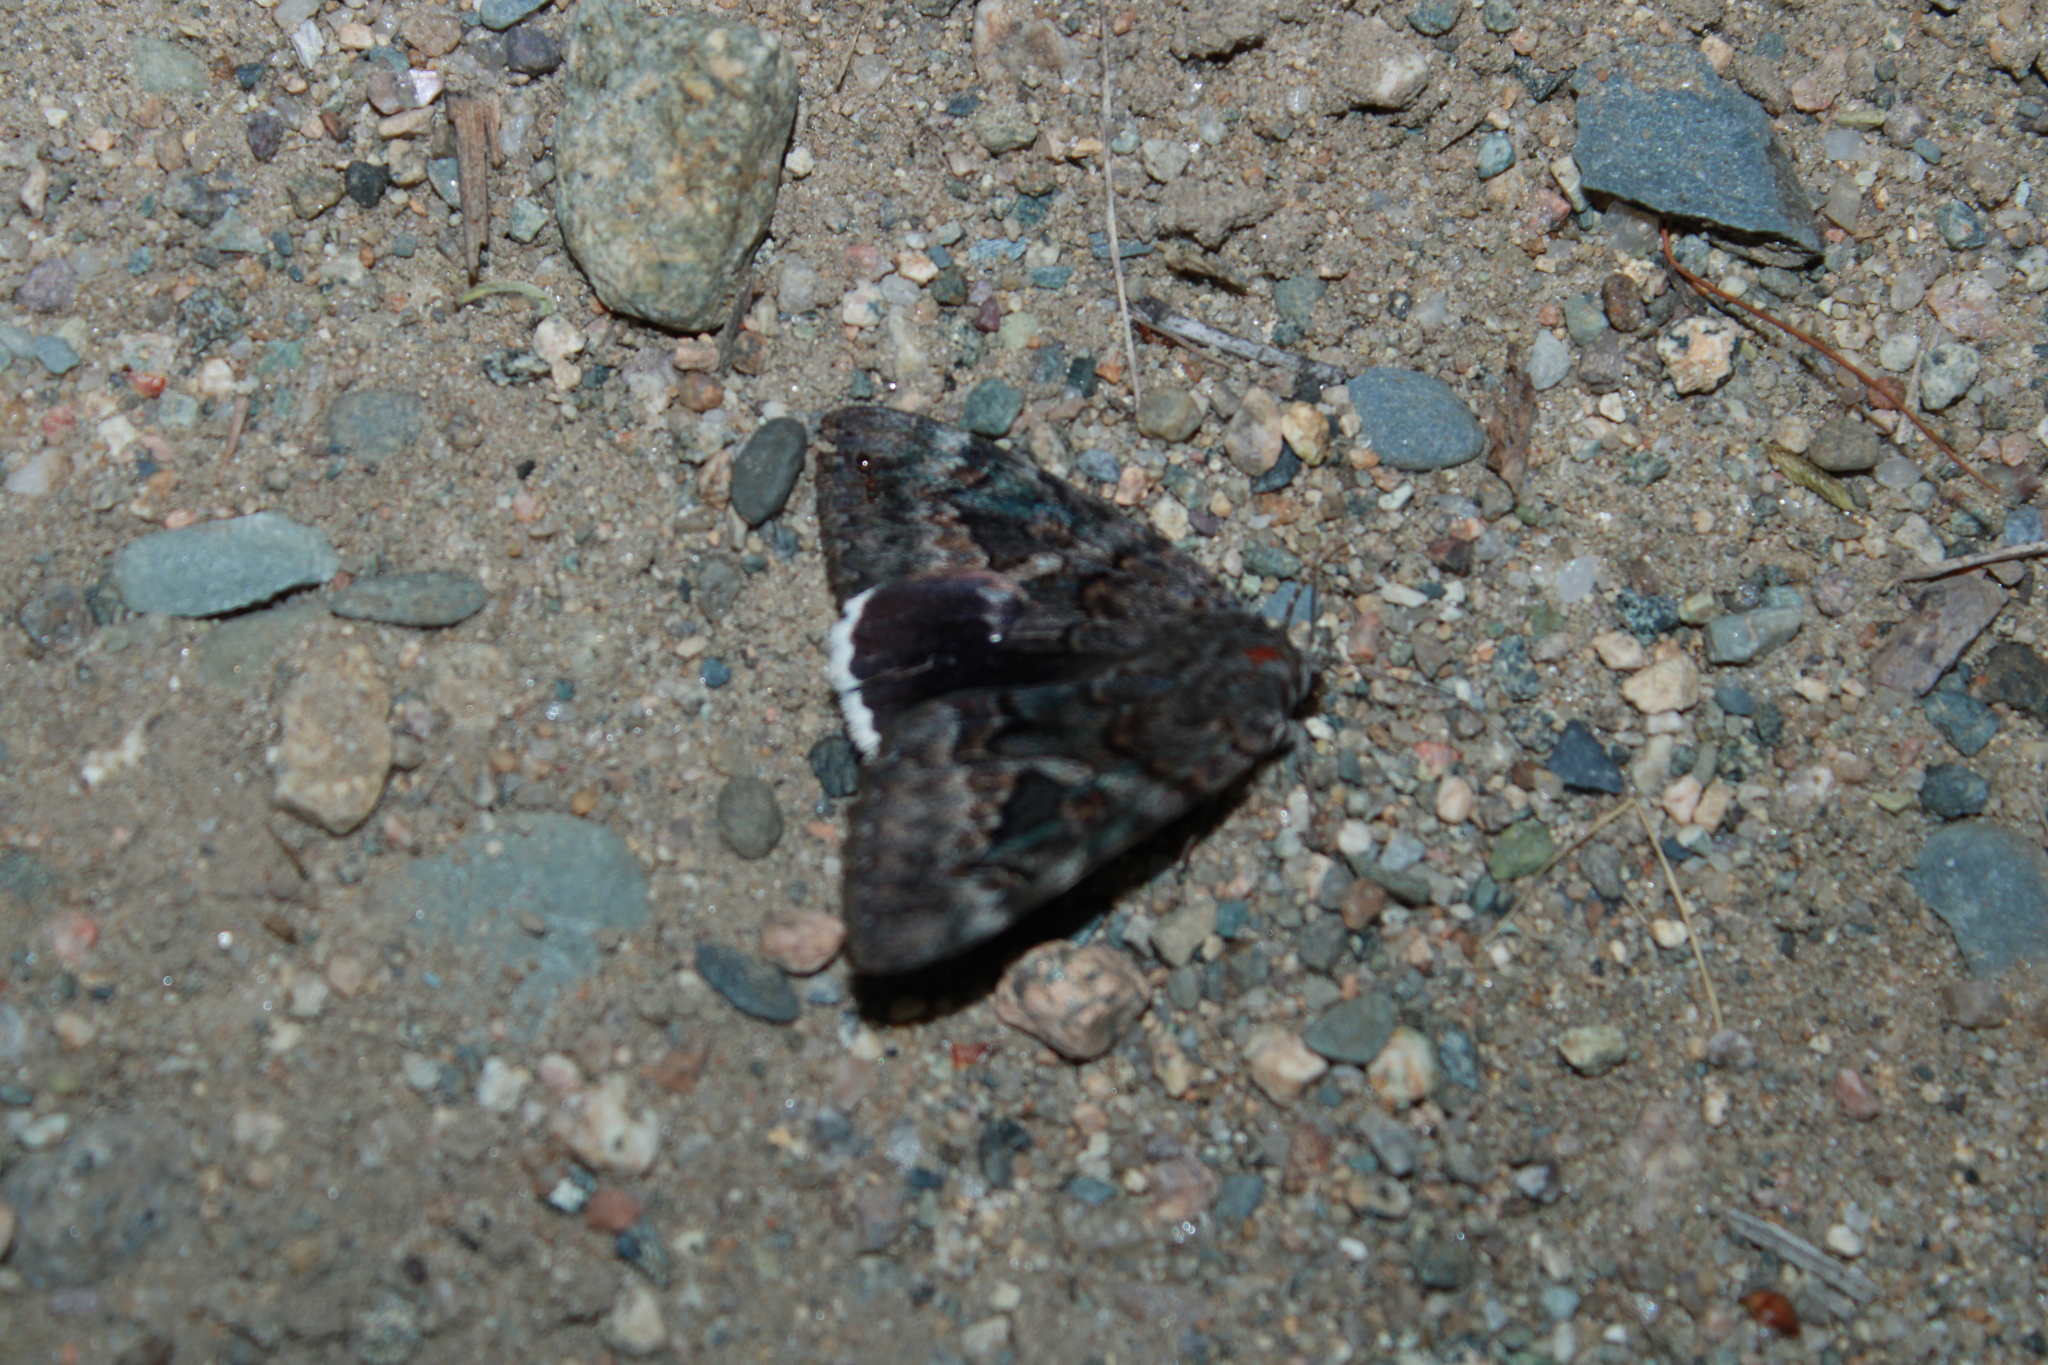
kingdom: Animalia
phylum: Arthropoda
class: Insecta
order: Lepidoptera
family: Erebidae
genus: Catocala
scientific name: Catocala epione
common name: Epione underwing
